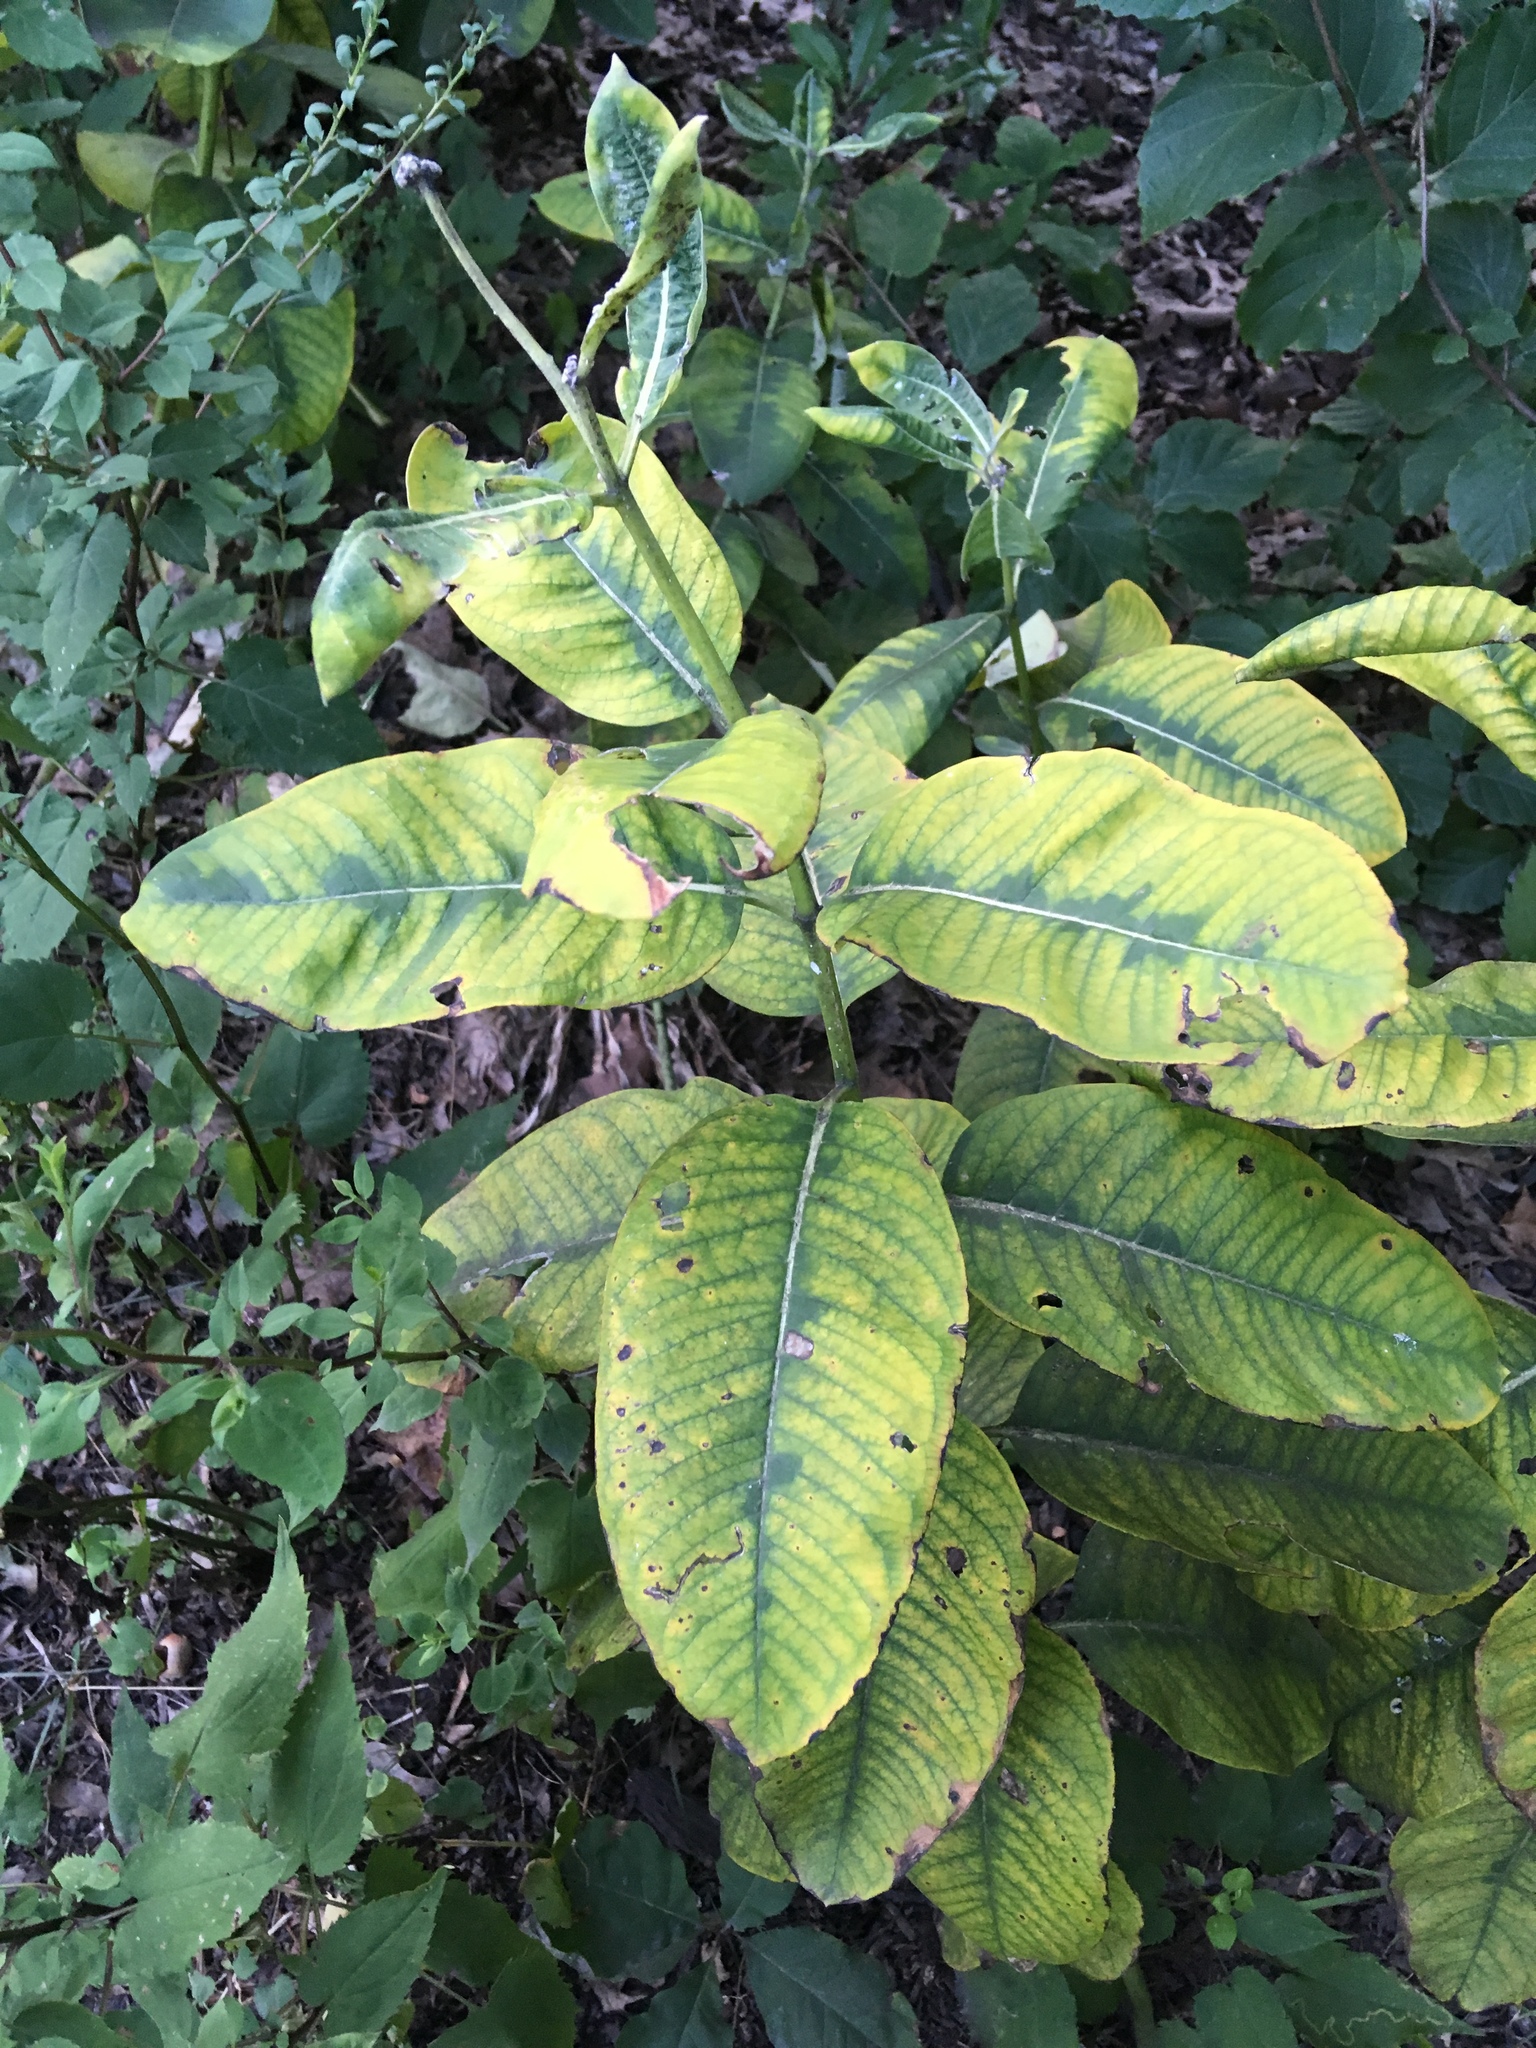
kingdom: Plantae
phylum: Tracheophyta
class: Magnoliopsida
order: Gentianales
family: Apocynaceae
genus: Asclepias
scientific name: Asclepias syriaca
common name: Common milkweed
